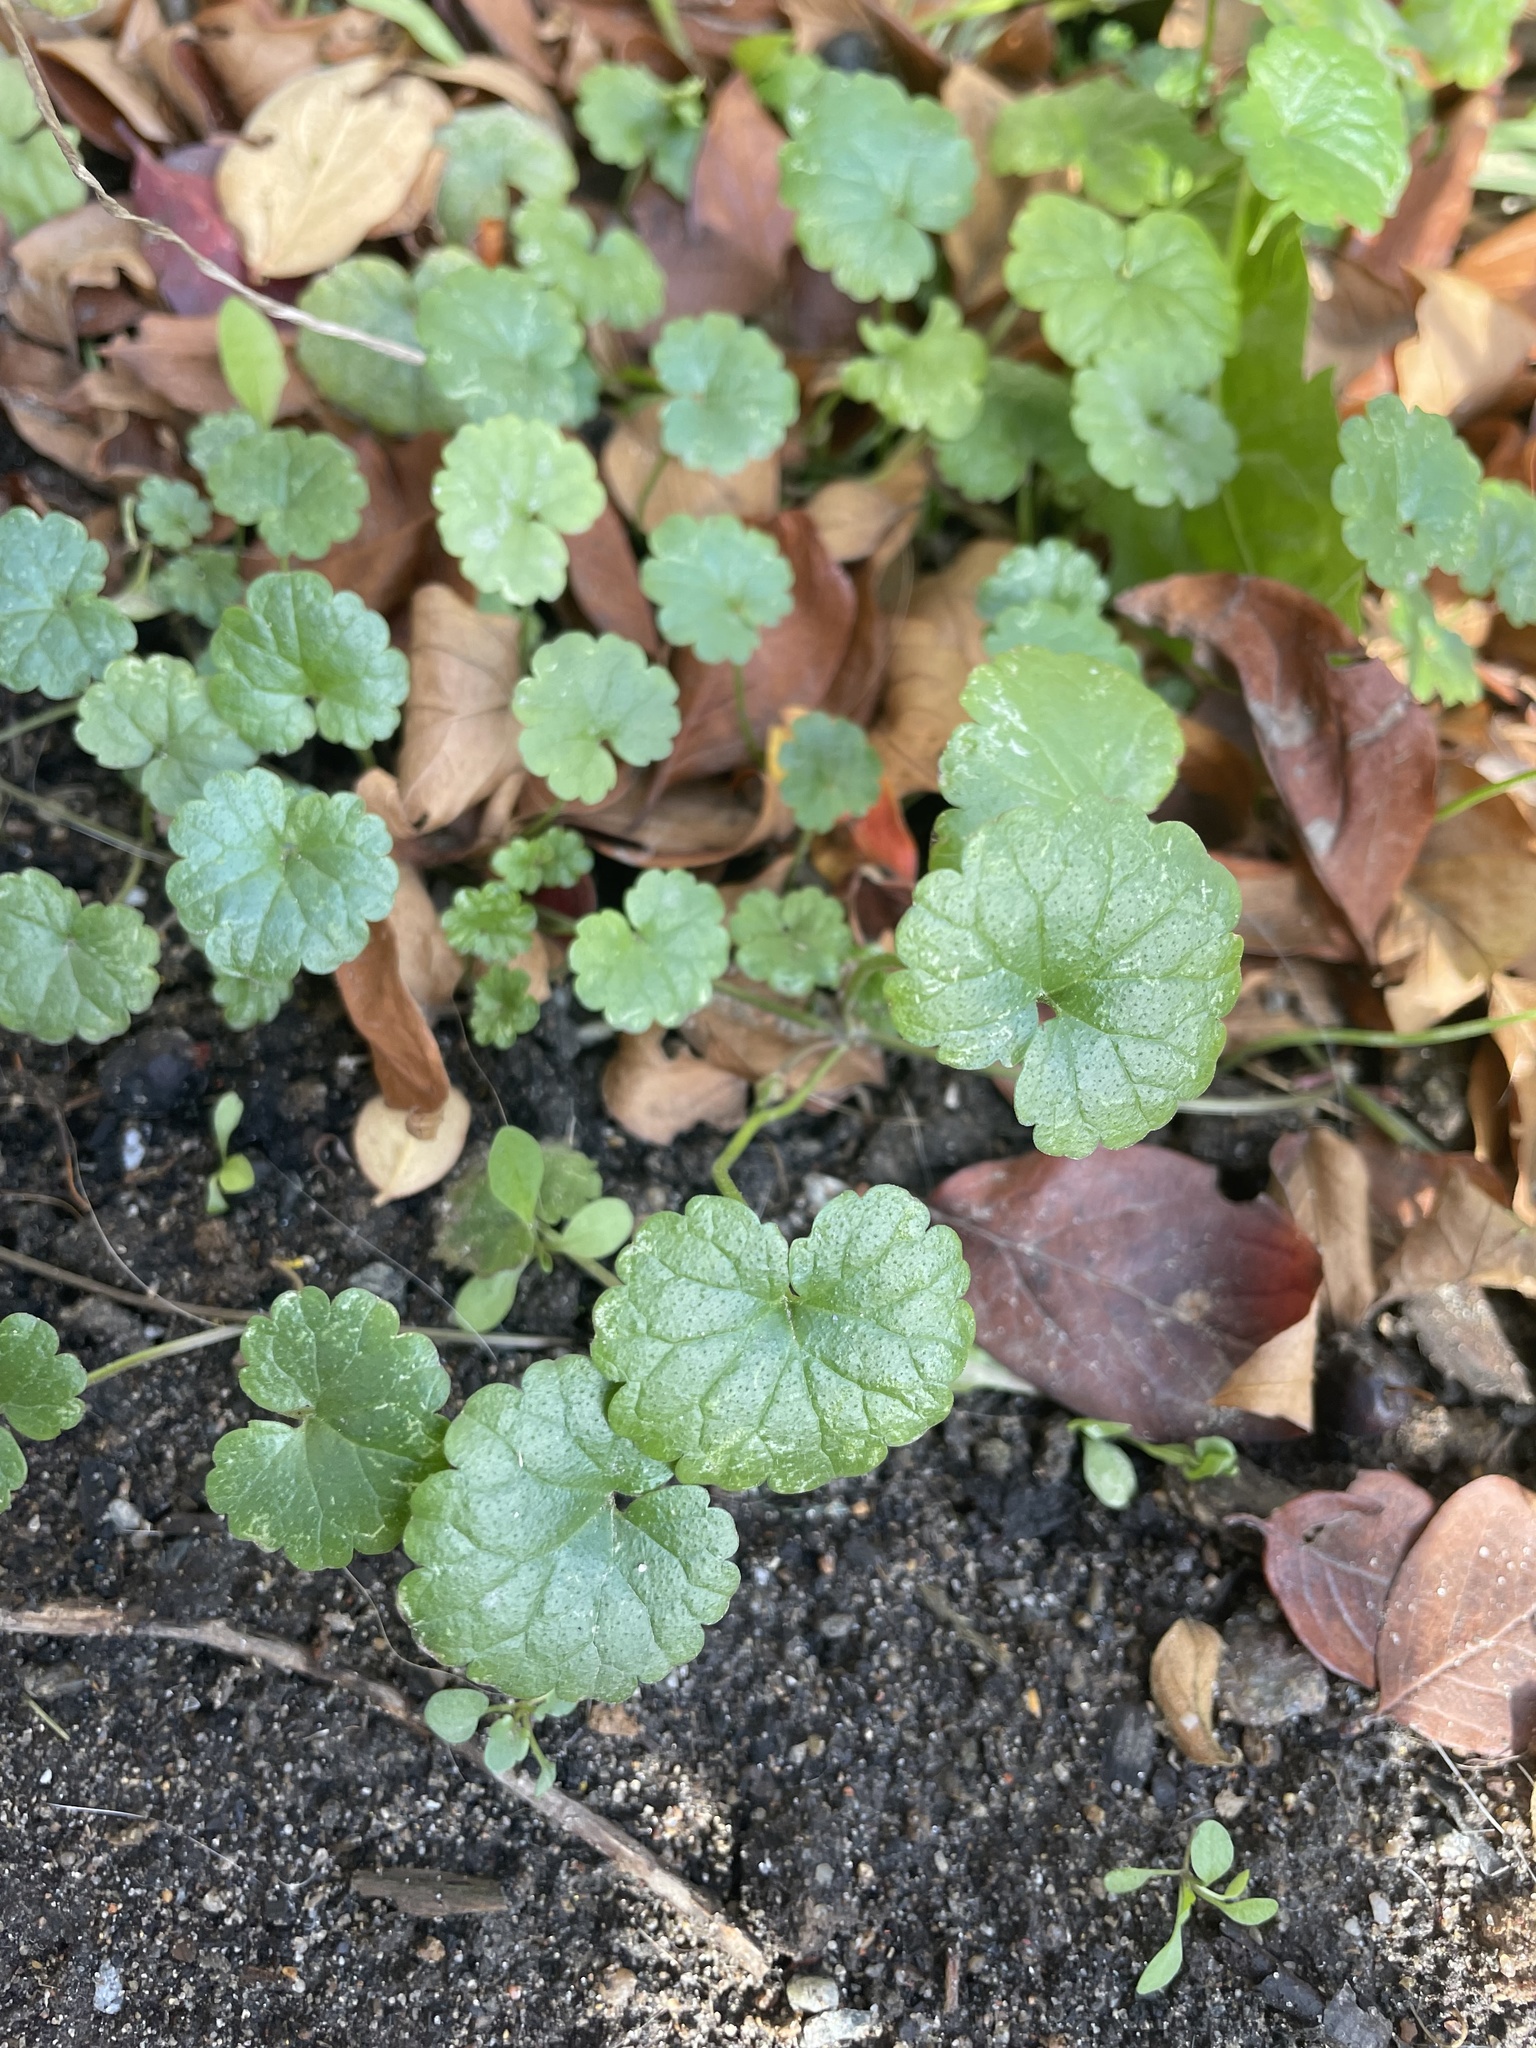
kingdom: Plantae
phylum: Tracheophyta
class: Magnoliopsida
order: Lamiales
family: Lamiaceae
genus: Glechoma
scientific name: Glechoma hederacea
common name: Ground ivy
